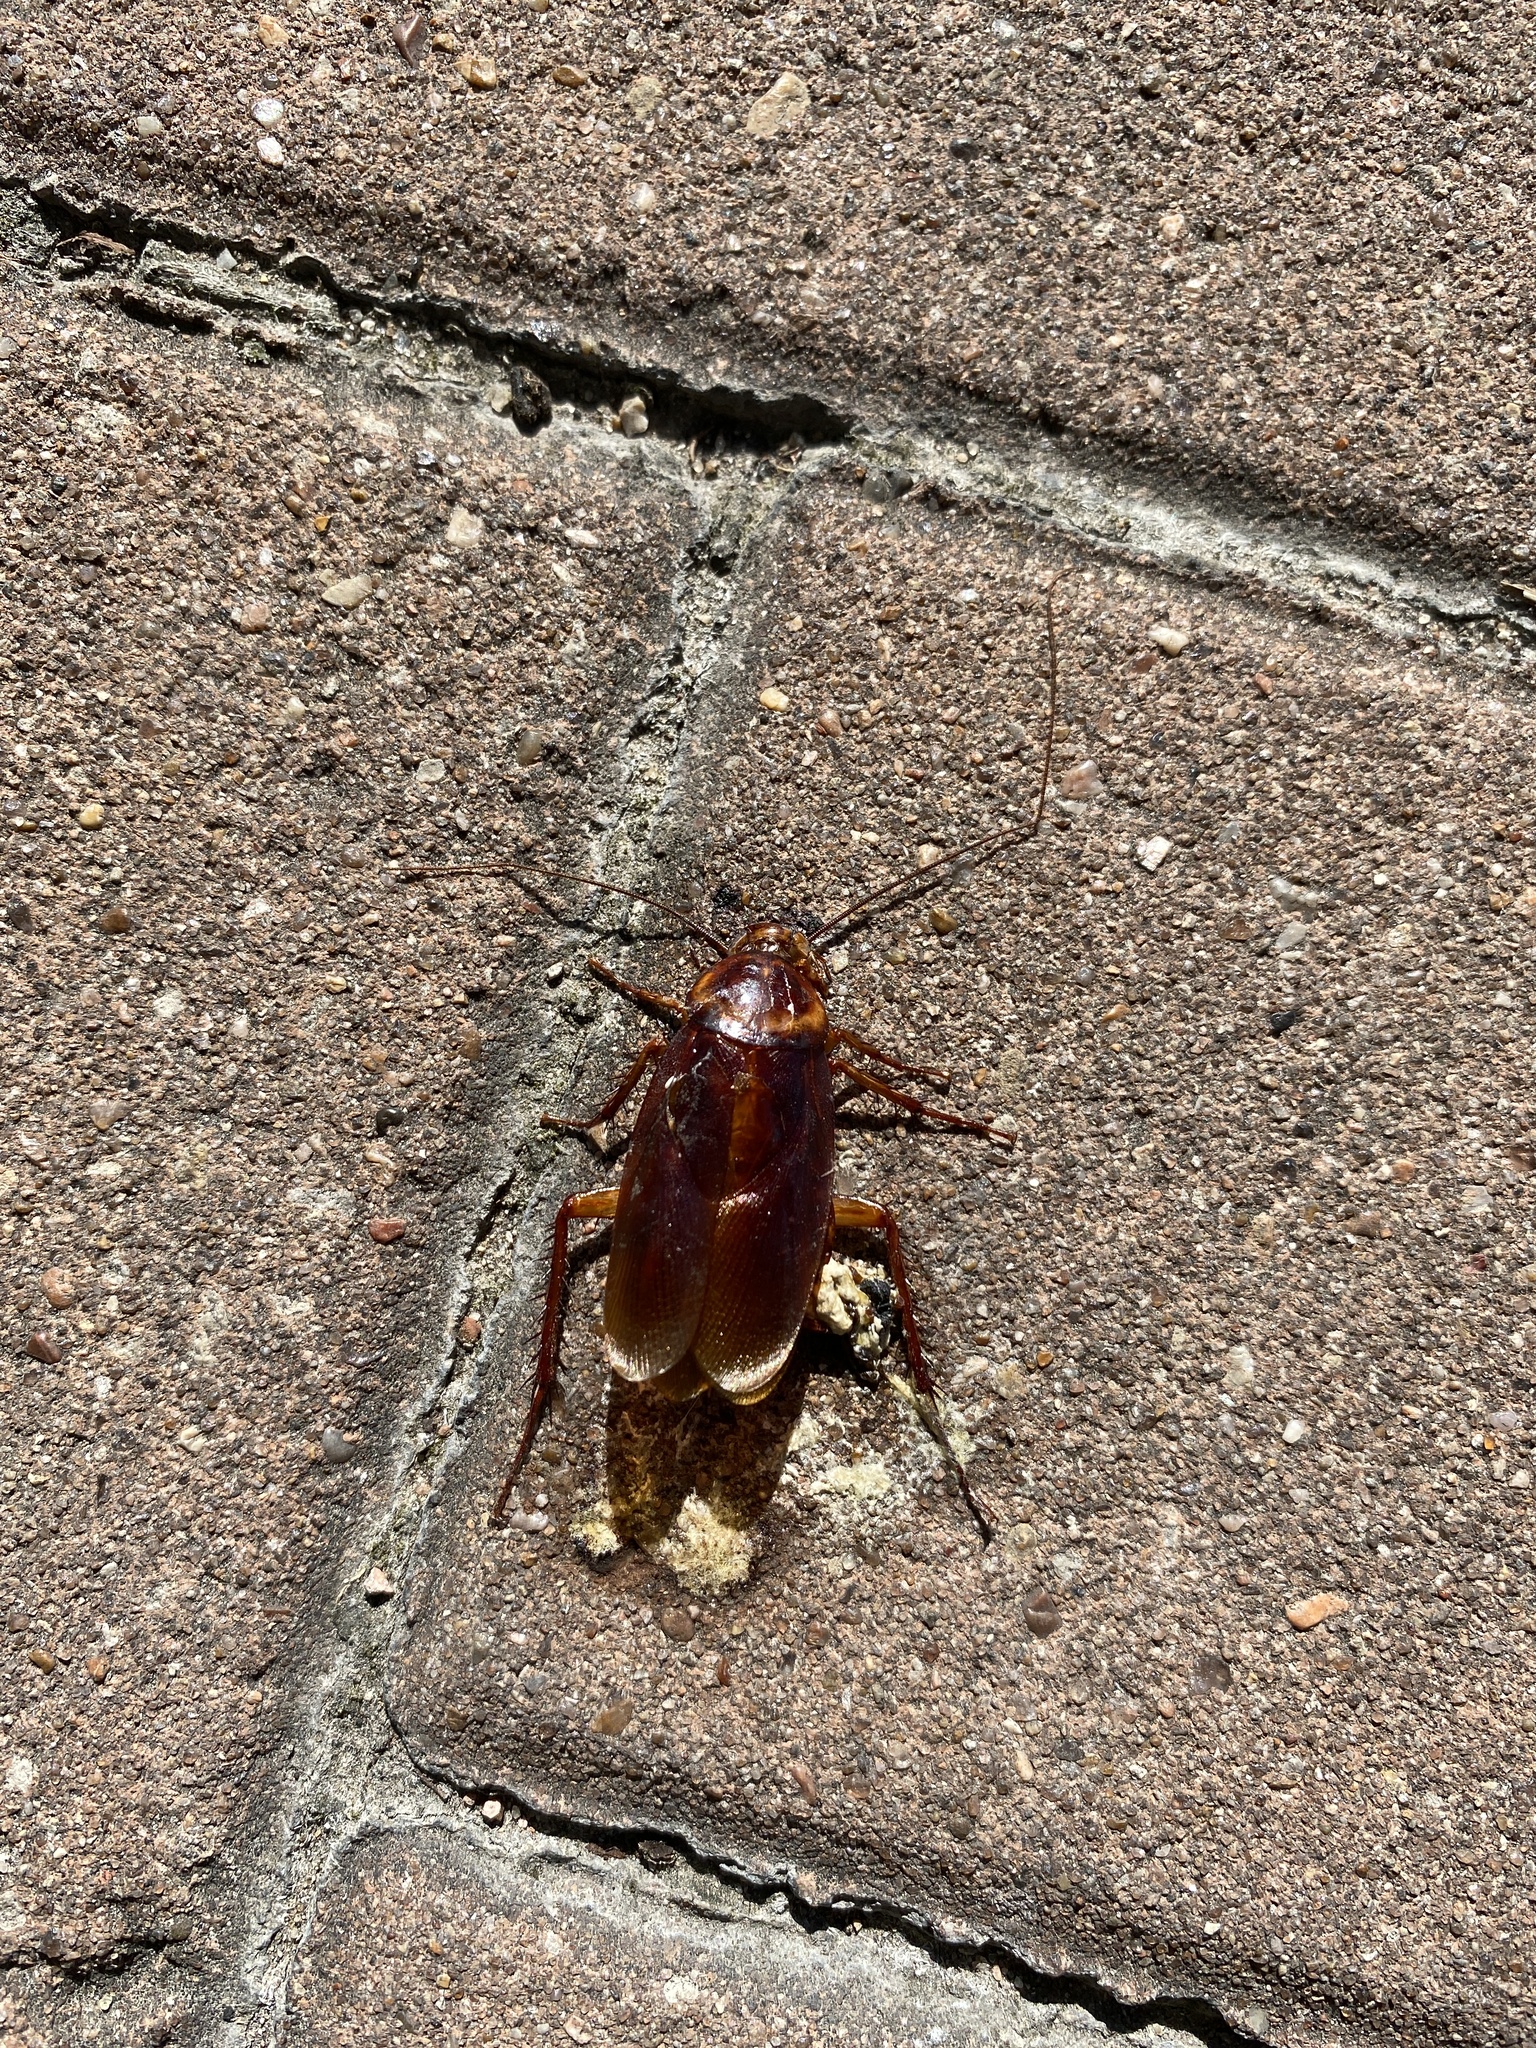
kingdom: Animalia
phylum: Arthropoda
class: Insecta
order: Blattodea
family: Blattidae
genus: Periplaneta
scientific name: Periplaneta americana
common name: American cockroach
